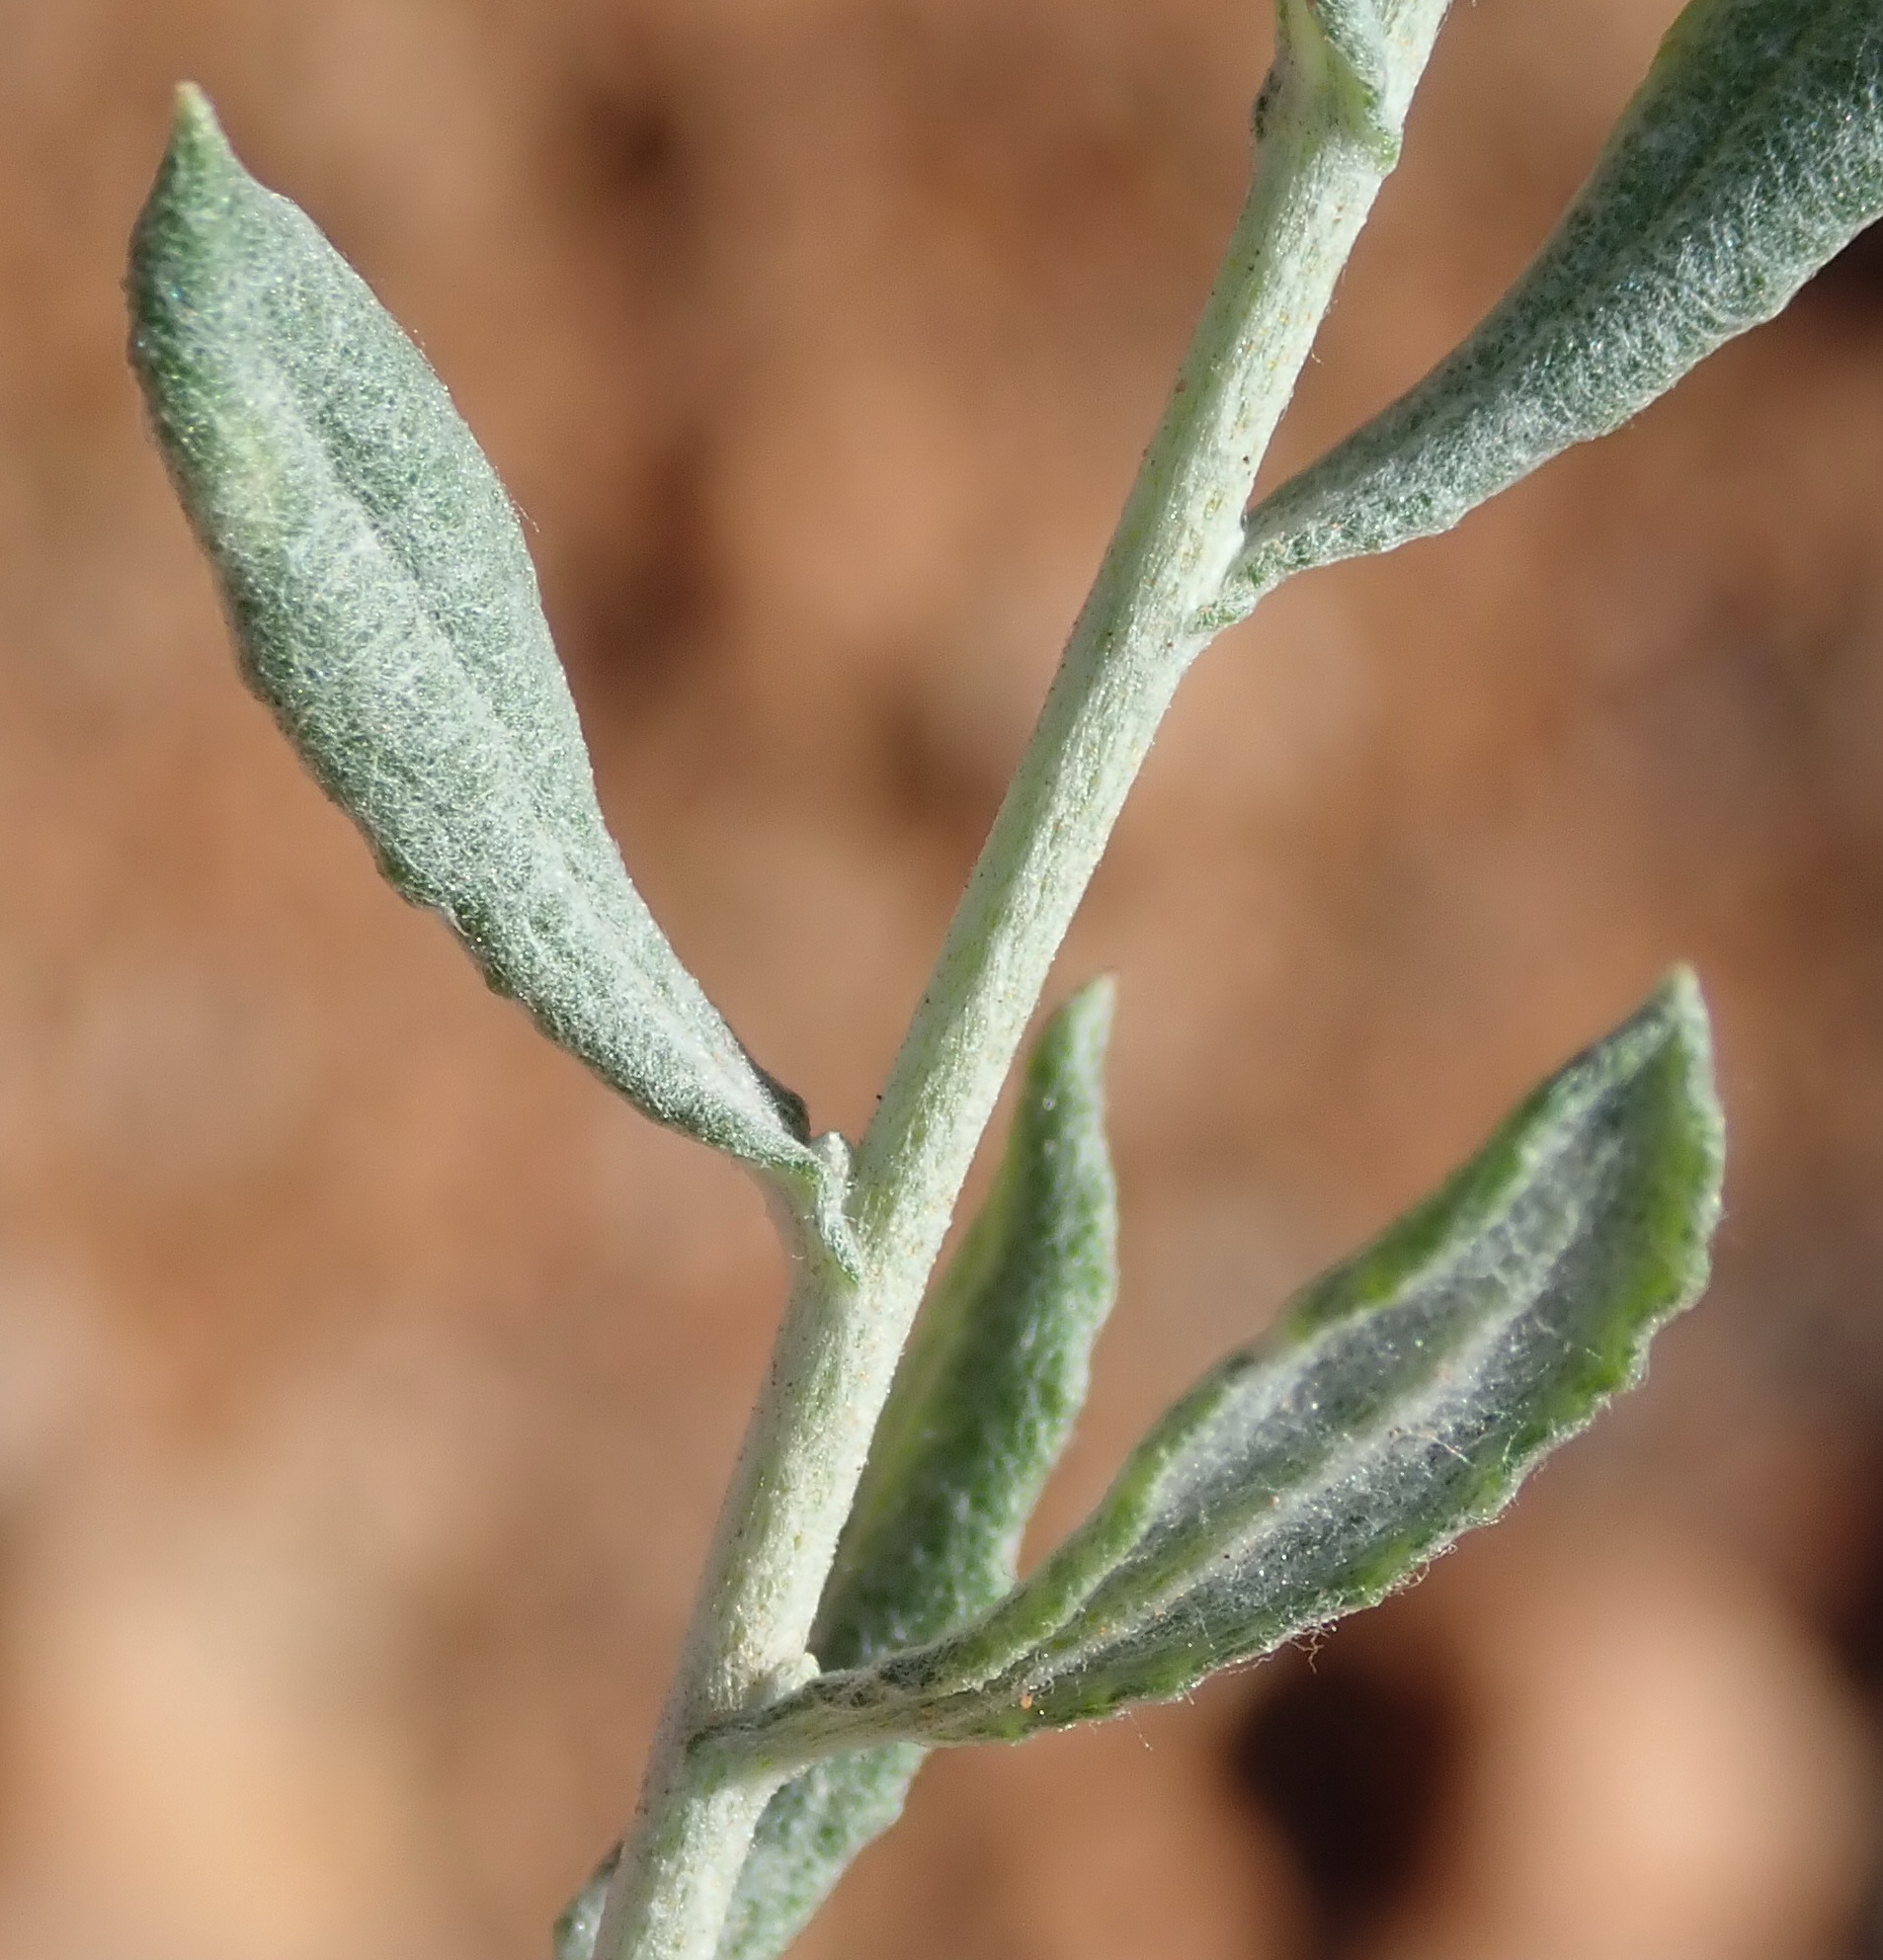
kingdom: Plantae
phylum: Tracheophyta
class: Magnoliopsida
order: Asterales
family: Asteraceae
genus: Helichrysum
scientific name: Helichrysum rosum
